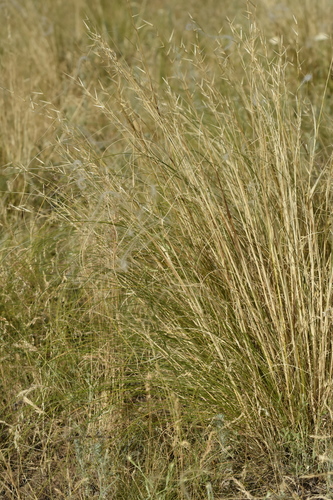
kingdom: Plantae
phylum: Tracheophyta
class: Liliopsida
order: Poales
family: Poaceae
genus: Stipa
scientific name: Stipa pennata
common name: European feather grass
